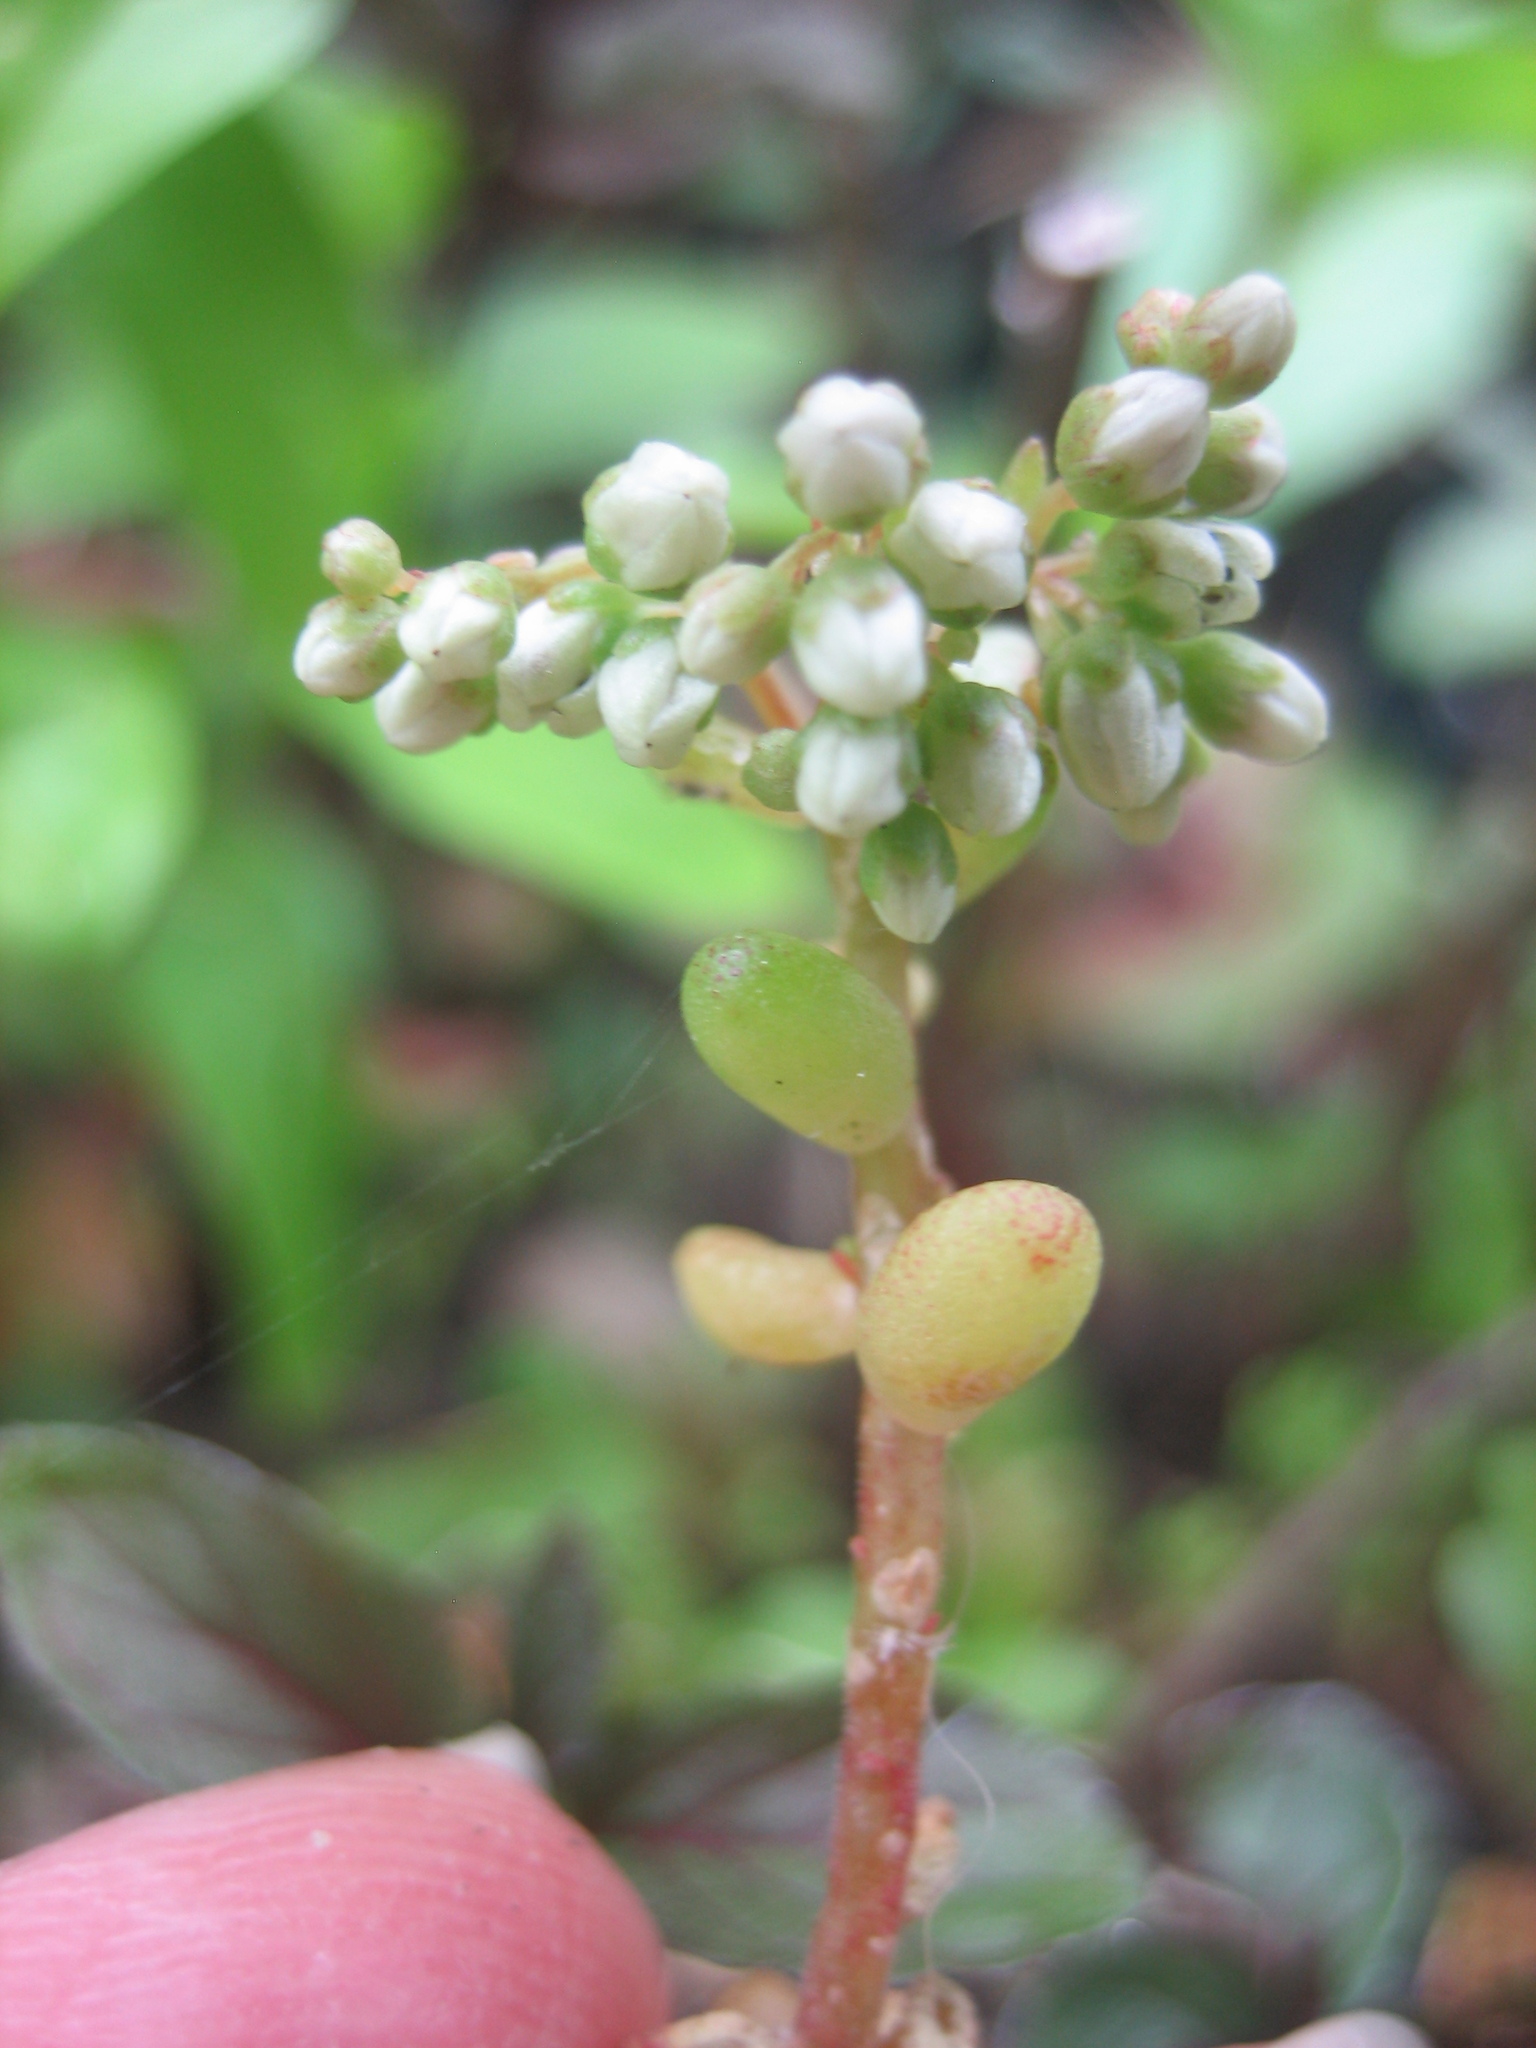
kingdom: Plantae
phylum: Tracheophyta
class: Magnoliopsida
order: Saxifragales
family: Crassulaceae
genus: Sedum
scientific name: Sedum album
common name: White stonecrop
